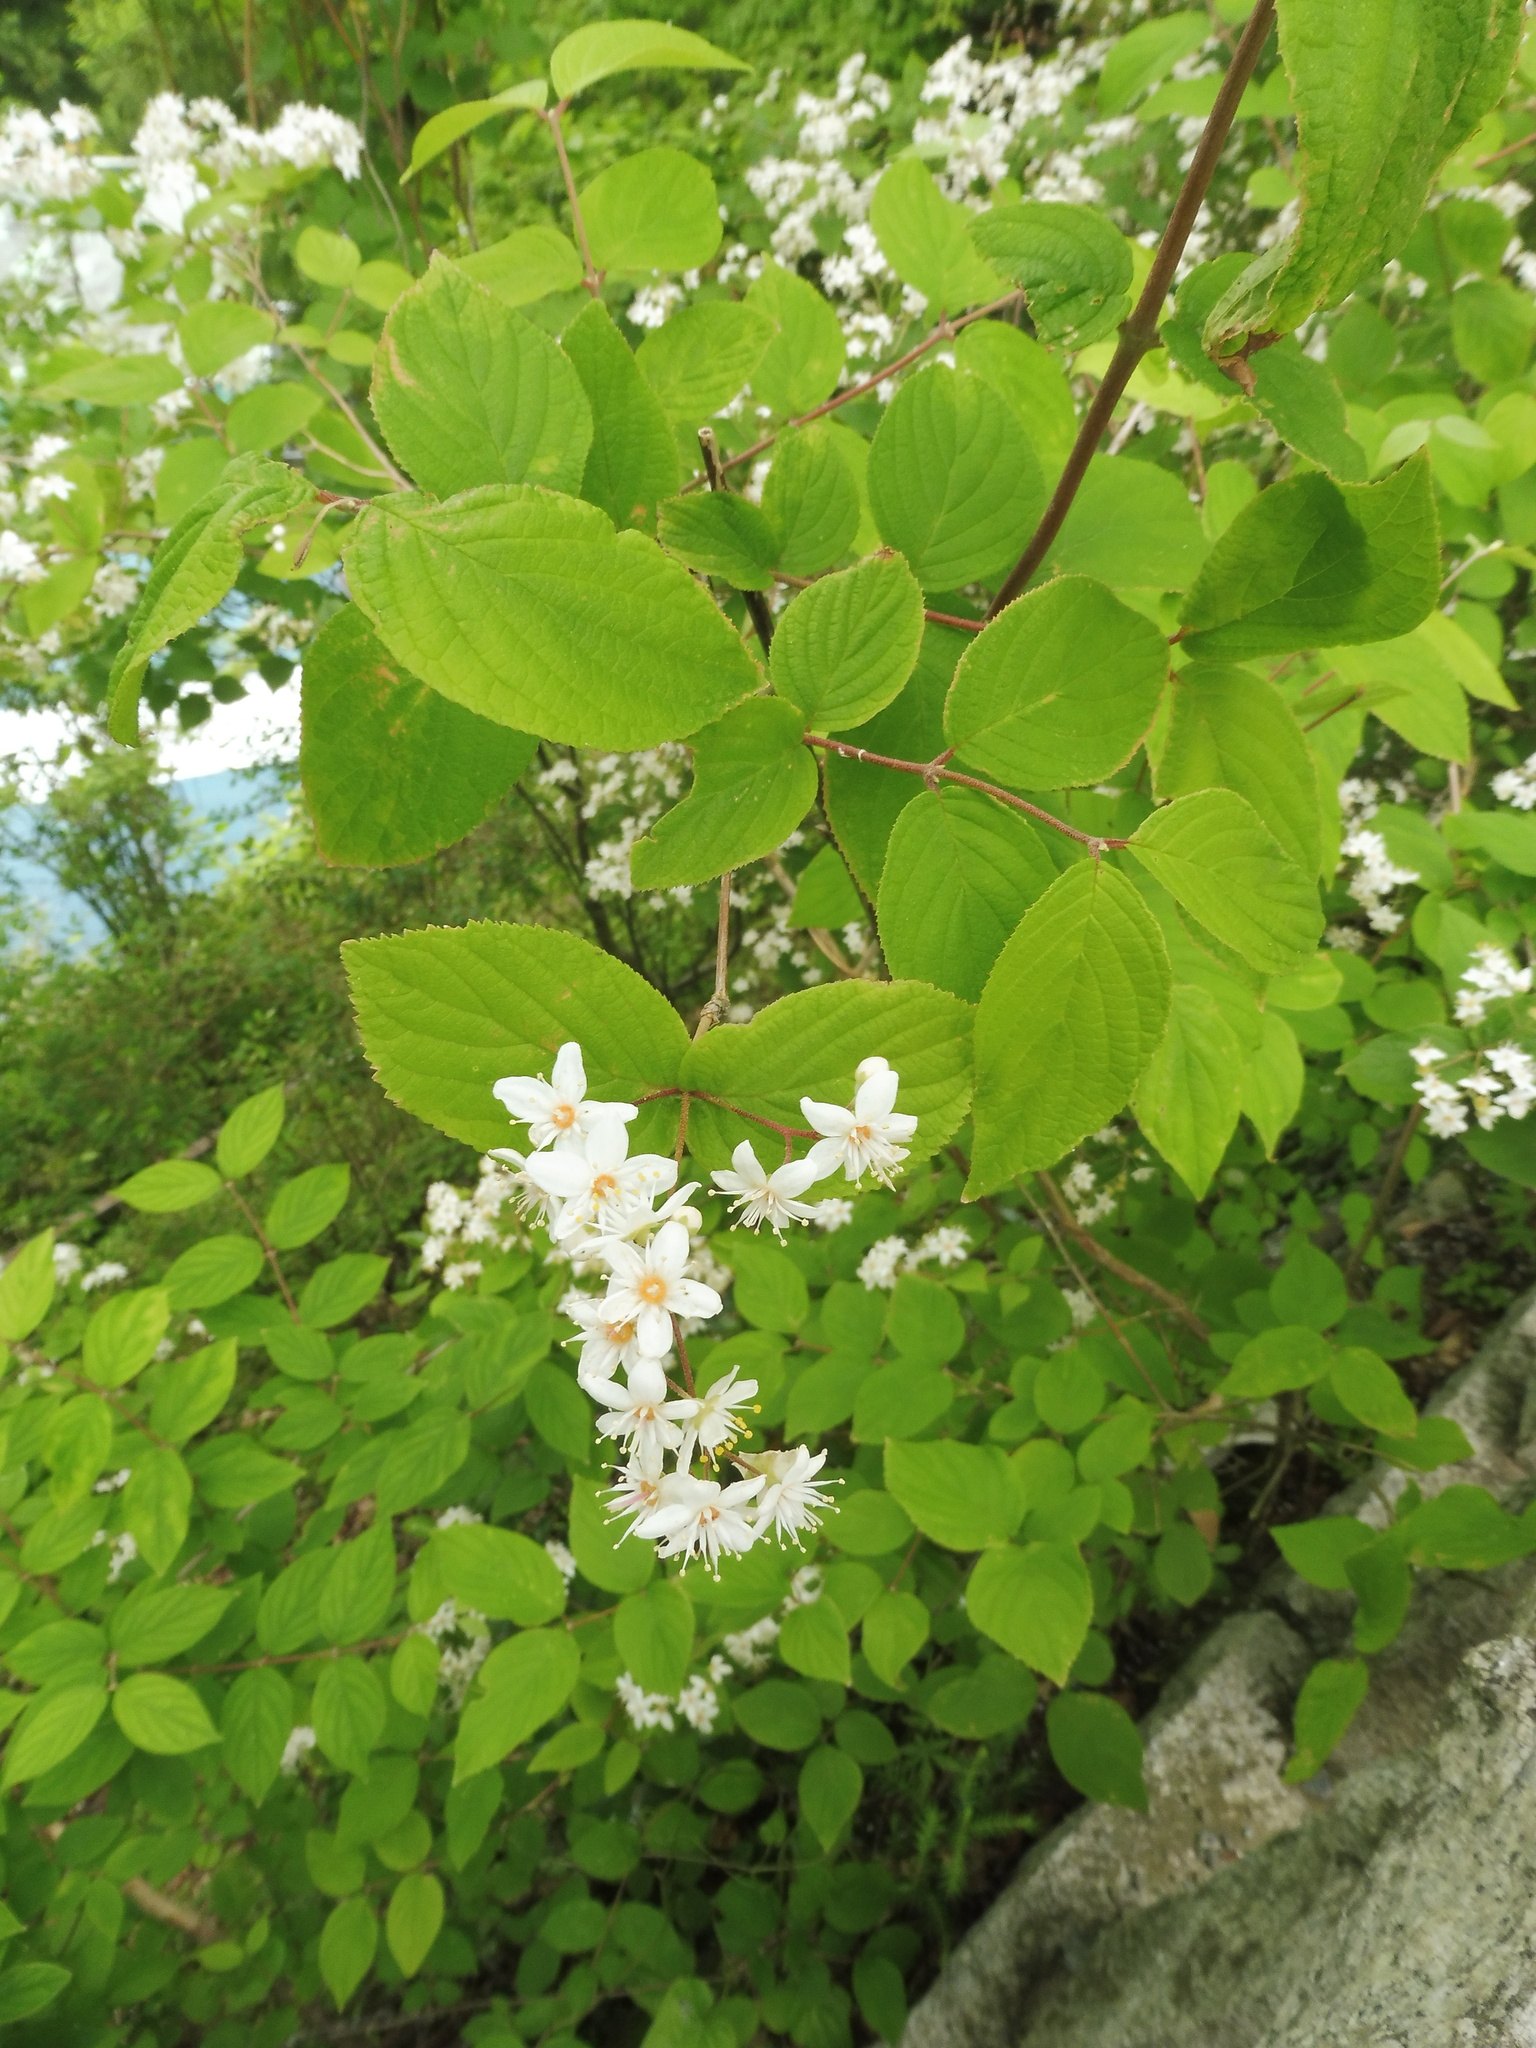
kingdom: Plantae
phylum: Tracheophyta
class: Magnoliopsida
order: Cornales
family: Hydrangeaceae
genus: Deutzia
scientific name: Deutzia scabra
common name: Deutzia
